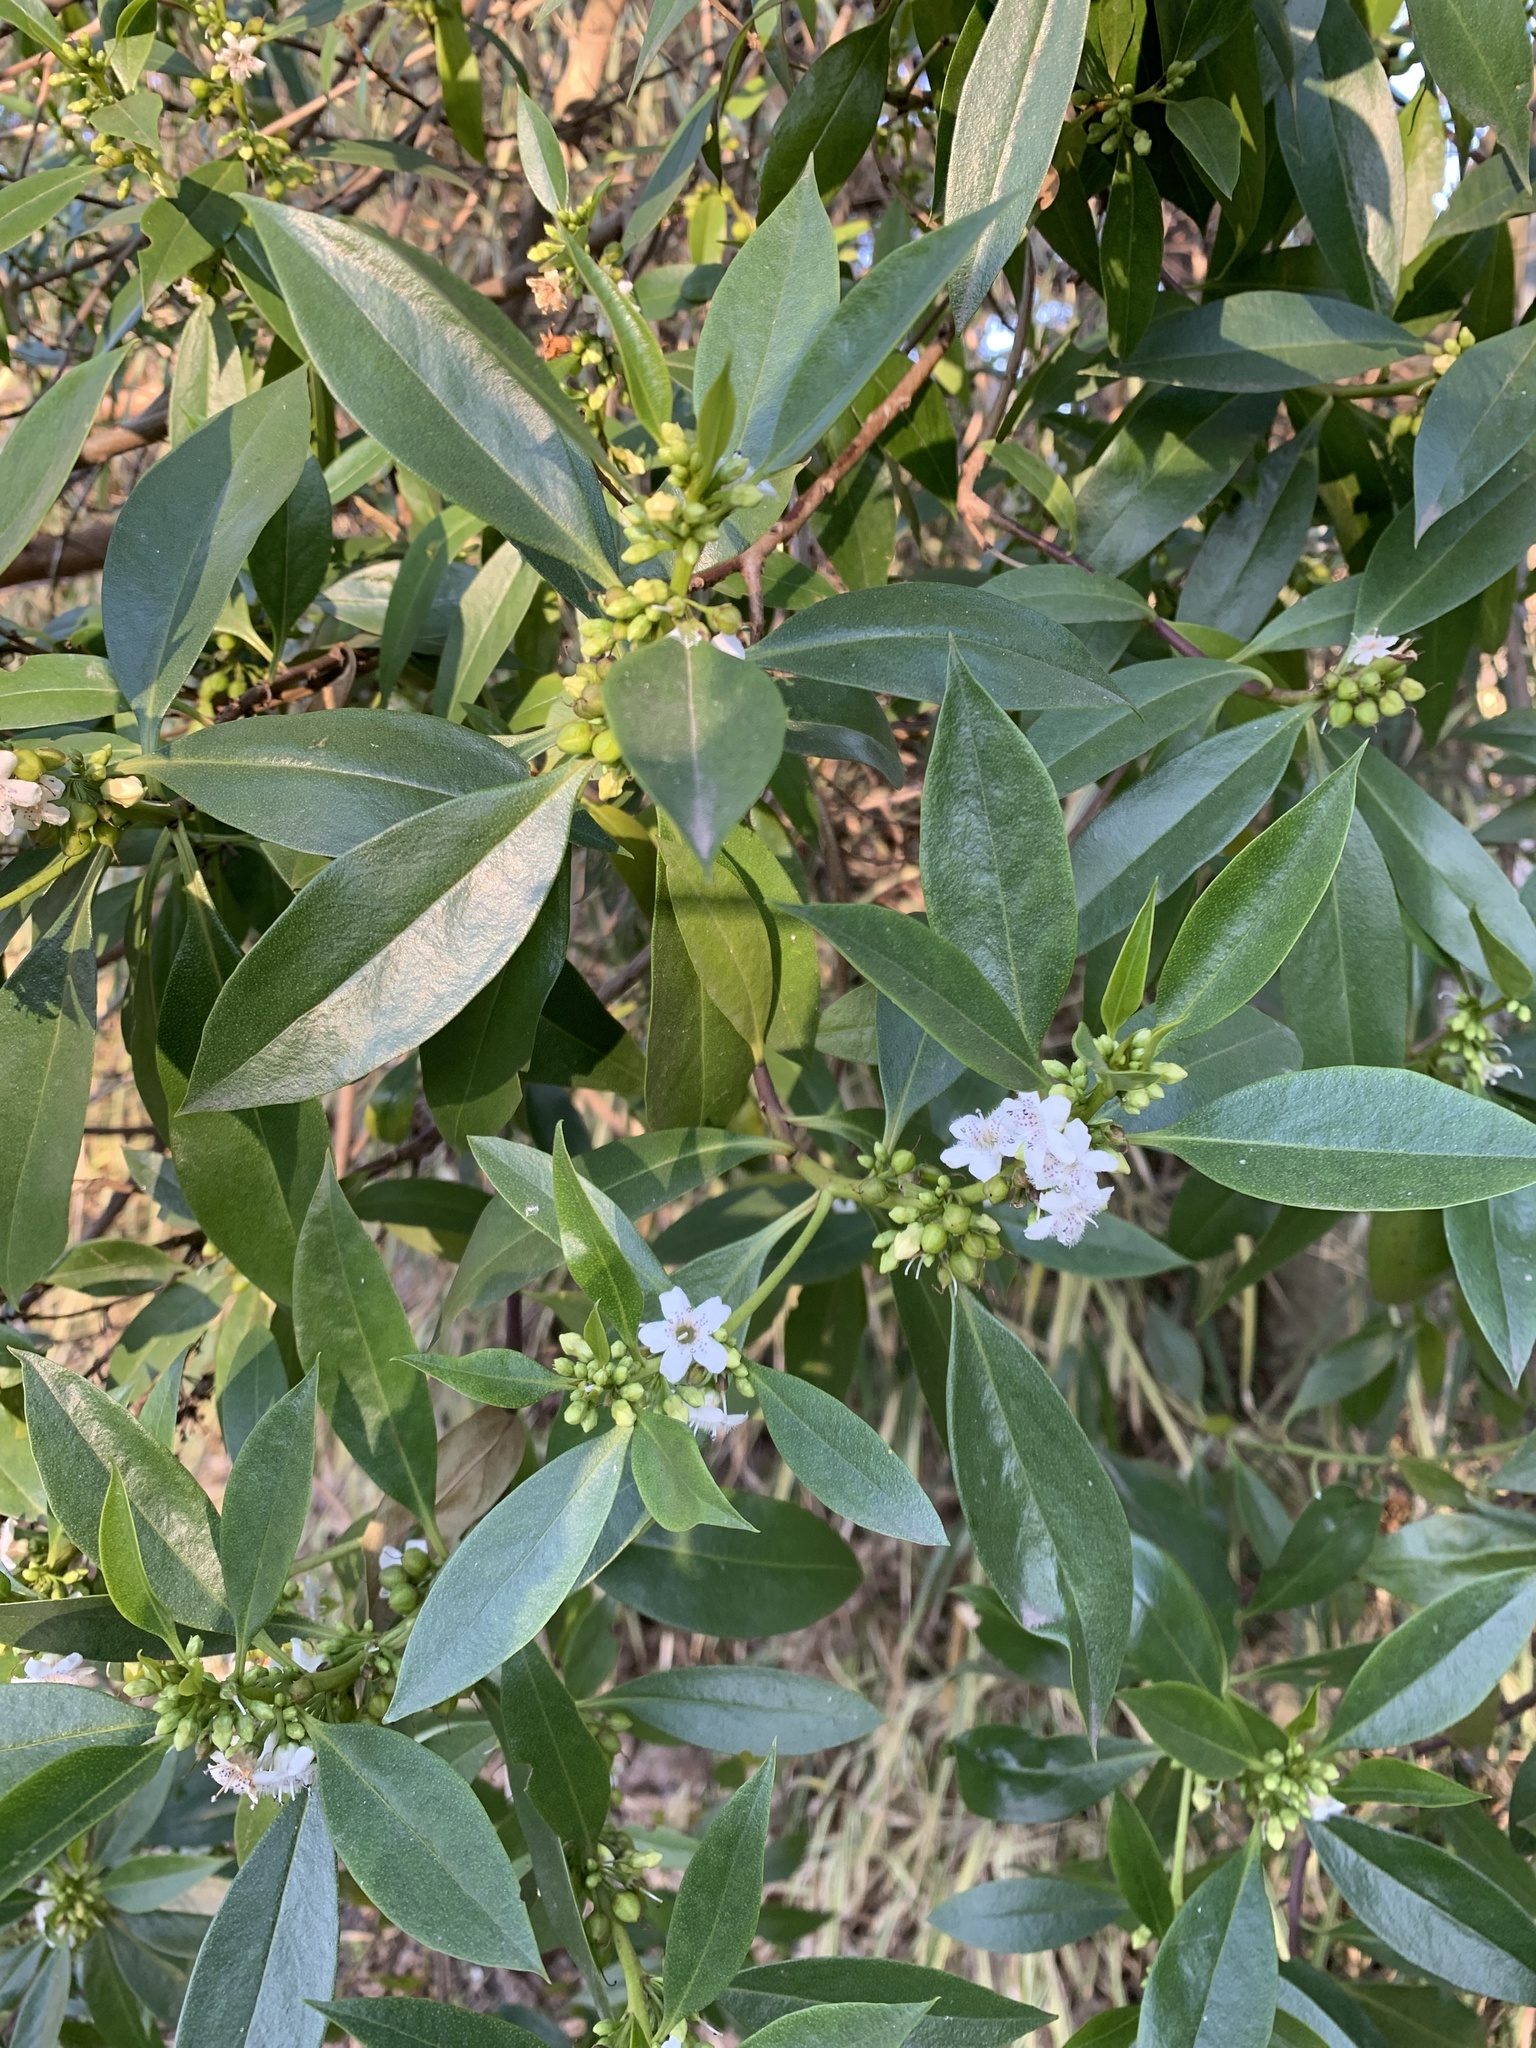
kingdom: Plantae
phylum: Tracheophyta
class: Magnoliopsida
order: Lamiales
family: Scrophulariaceae
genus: Myoporum
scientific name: Myoporum laetum
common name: Ngaio tree
